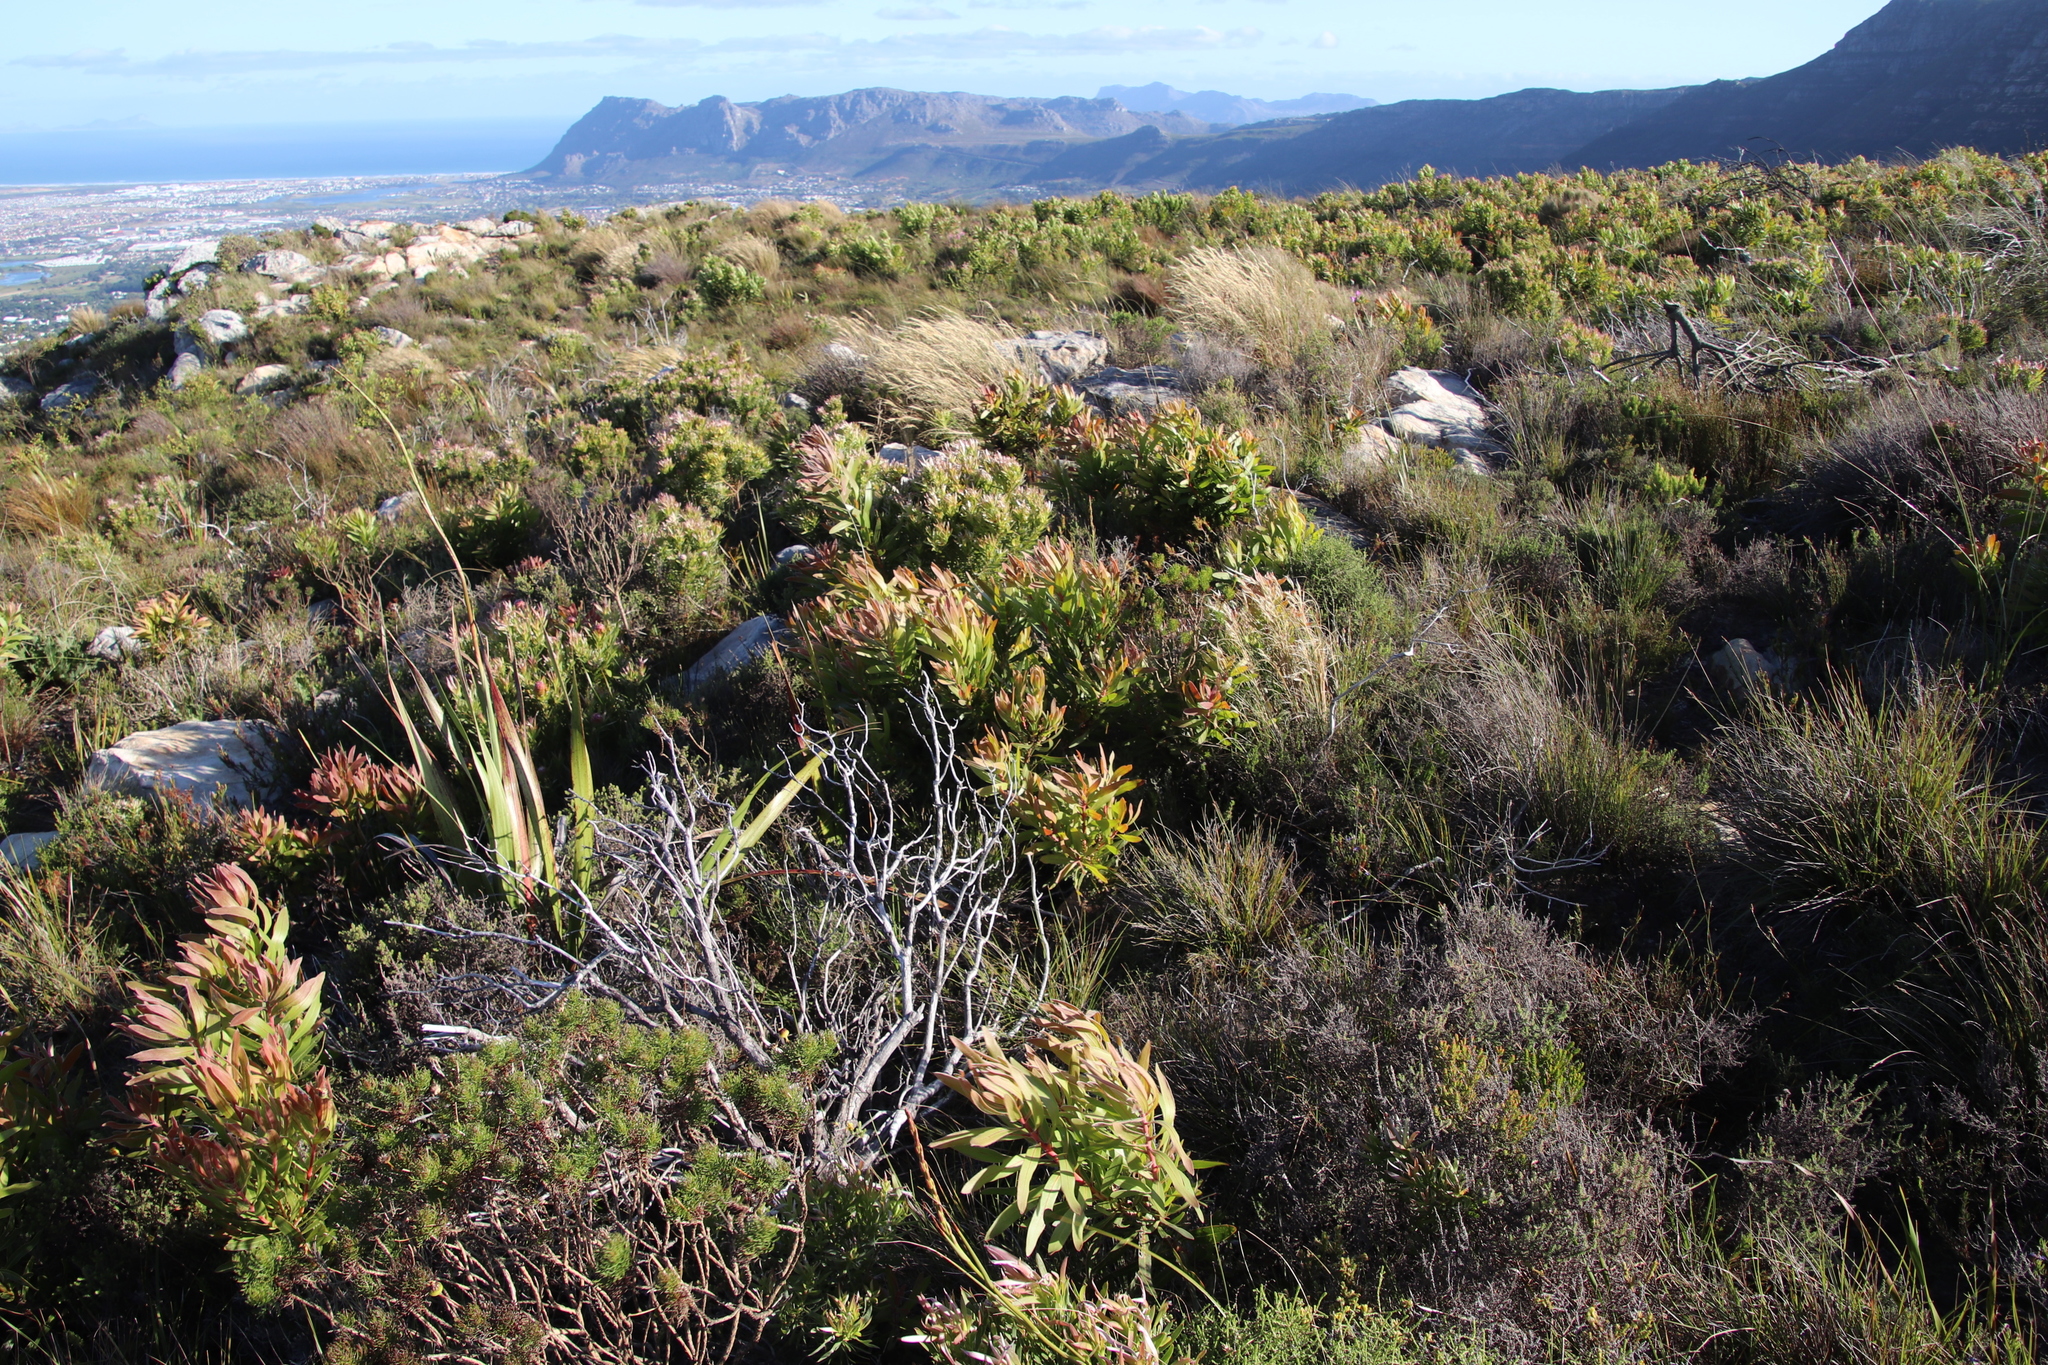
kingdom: Plantae
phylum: Tracheophyta
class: Magnoliopsida
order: Proteales
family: Proteaceae
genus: Protea
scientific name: Protea lepidocarpodendron
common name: Black-bearded protea
